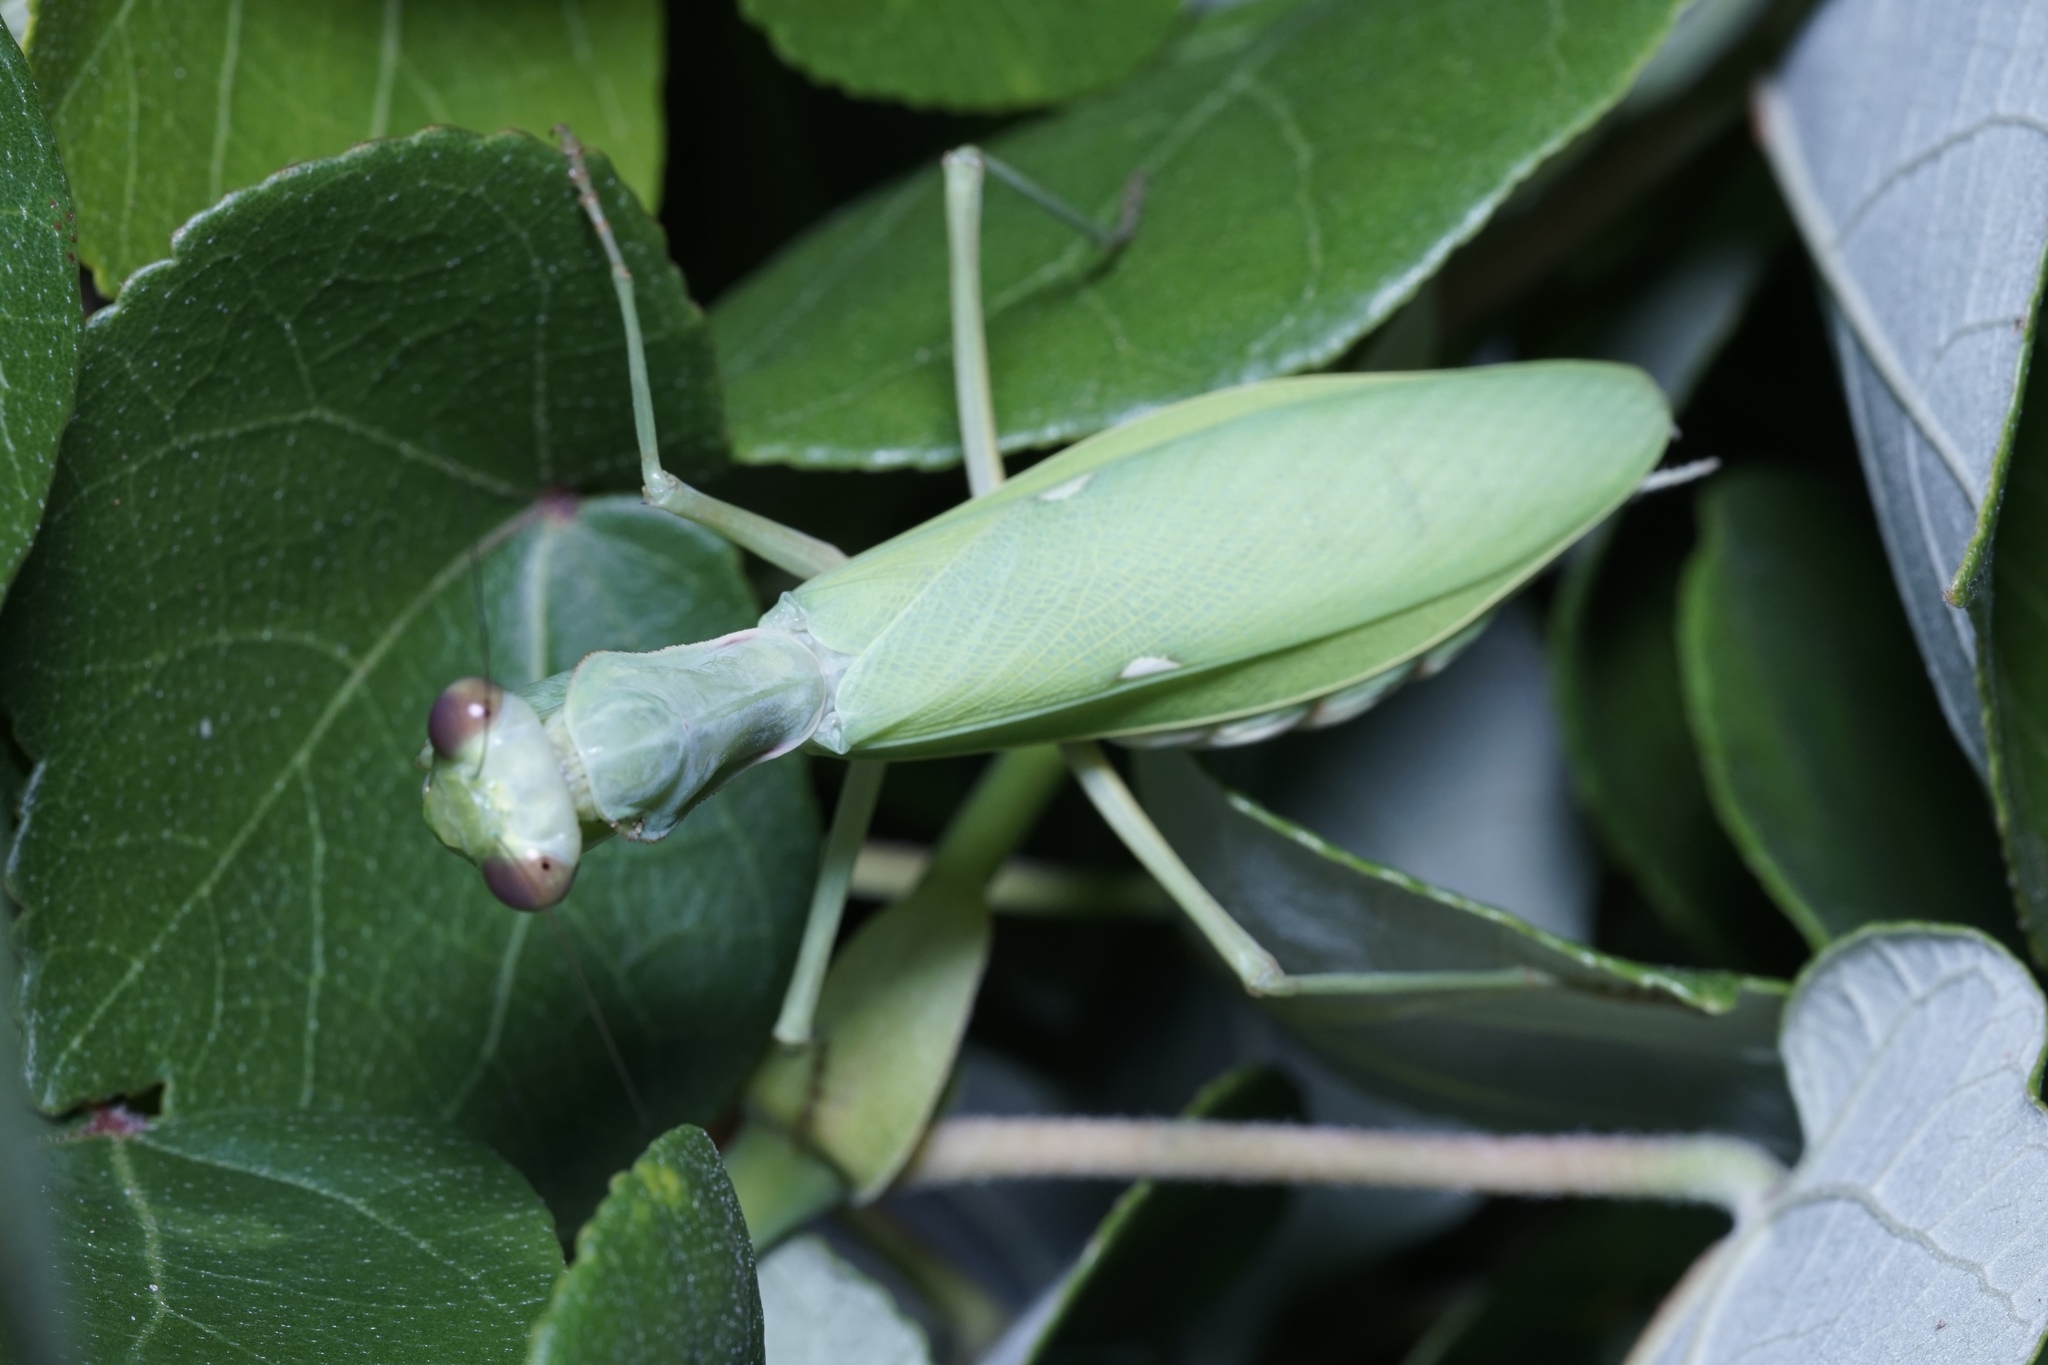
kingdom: Animalia
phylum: Arthropoda
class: Insecta
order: Mantodea
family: Mantidae
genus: Hierodula
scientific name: Hierodula patellifera
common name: Asian mantis
